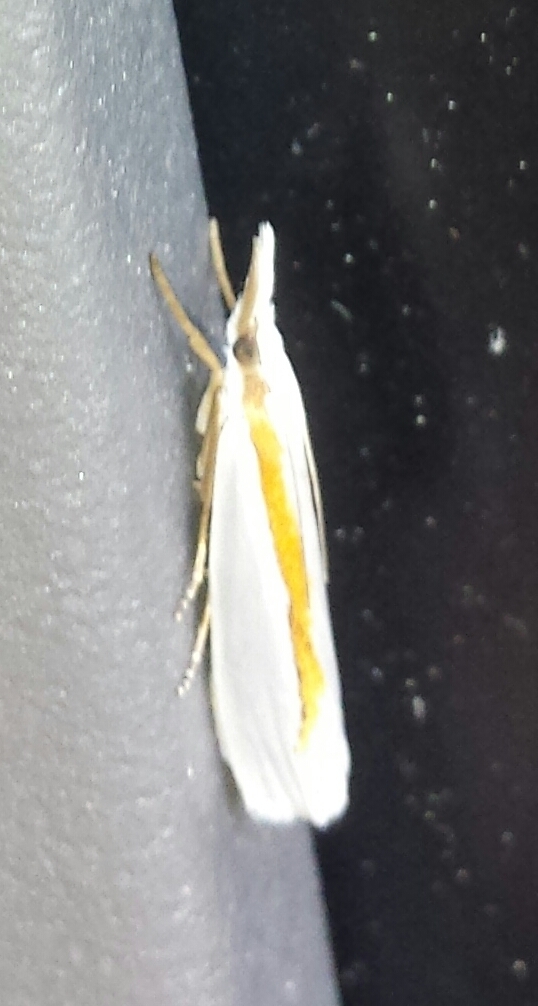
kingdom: Animalia
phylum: Arthropoda
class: Insecta
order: Lepidoptera
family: Crambidae
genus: Crambus
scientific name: Crambus girardellus
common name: Girard's grass-veneer
